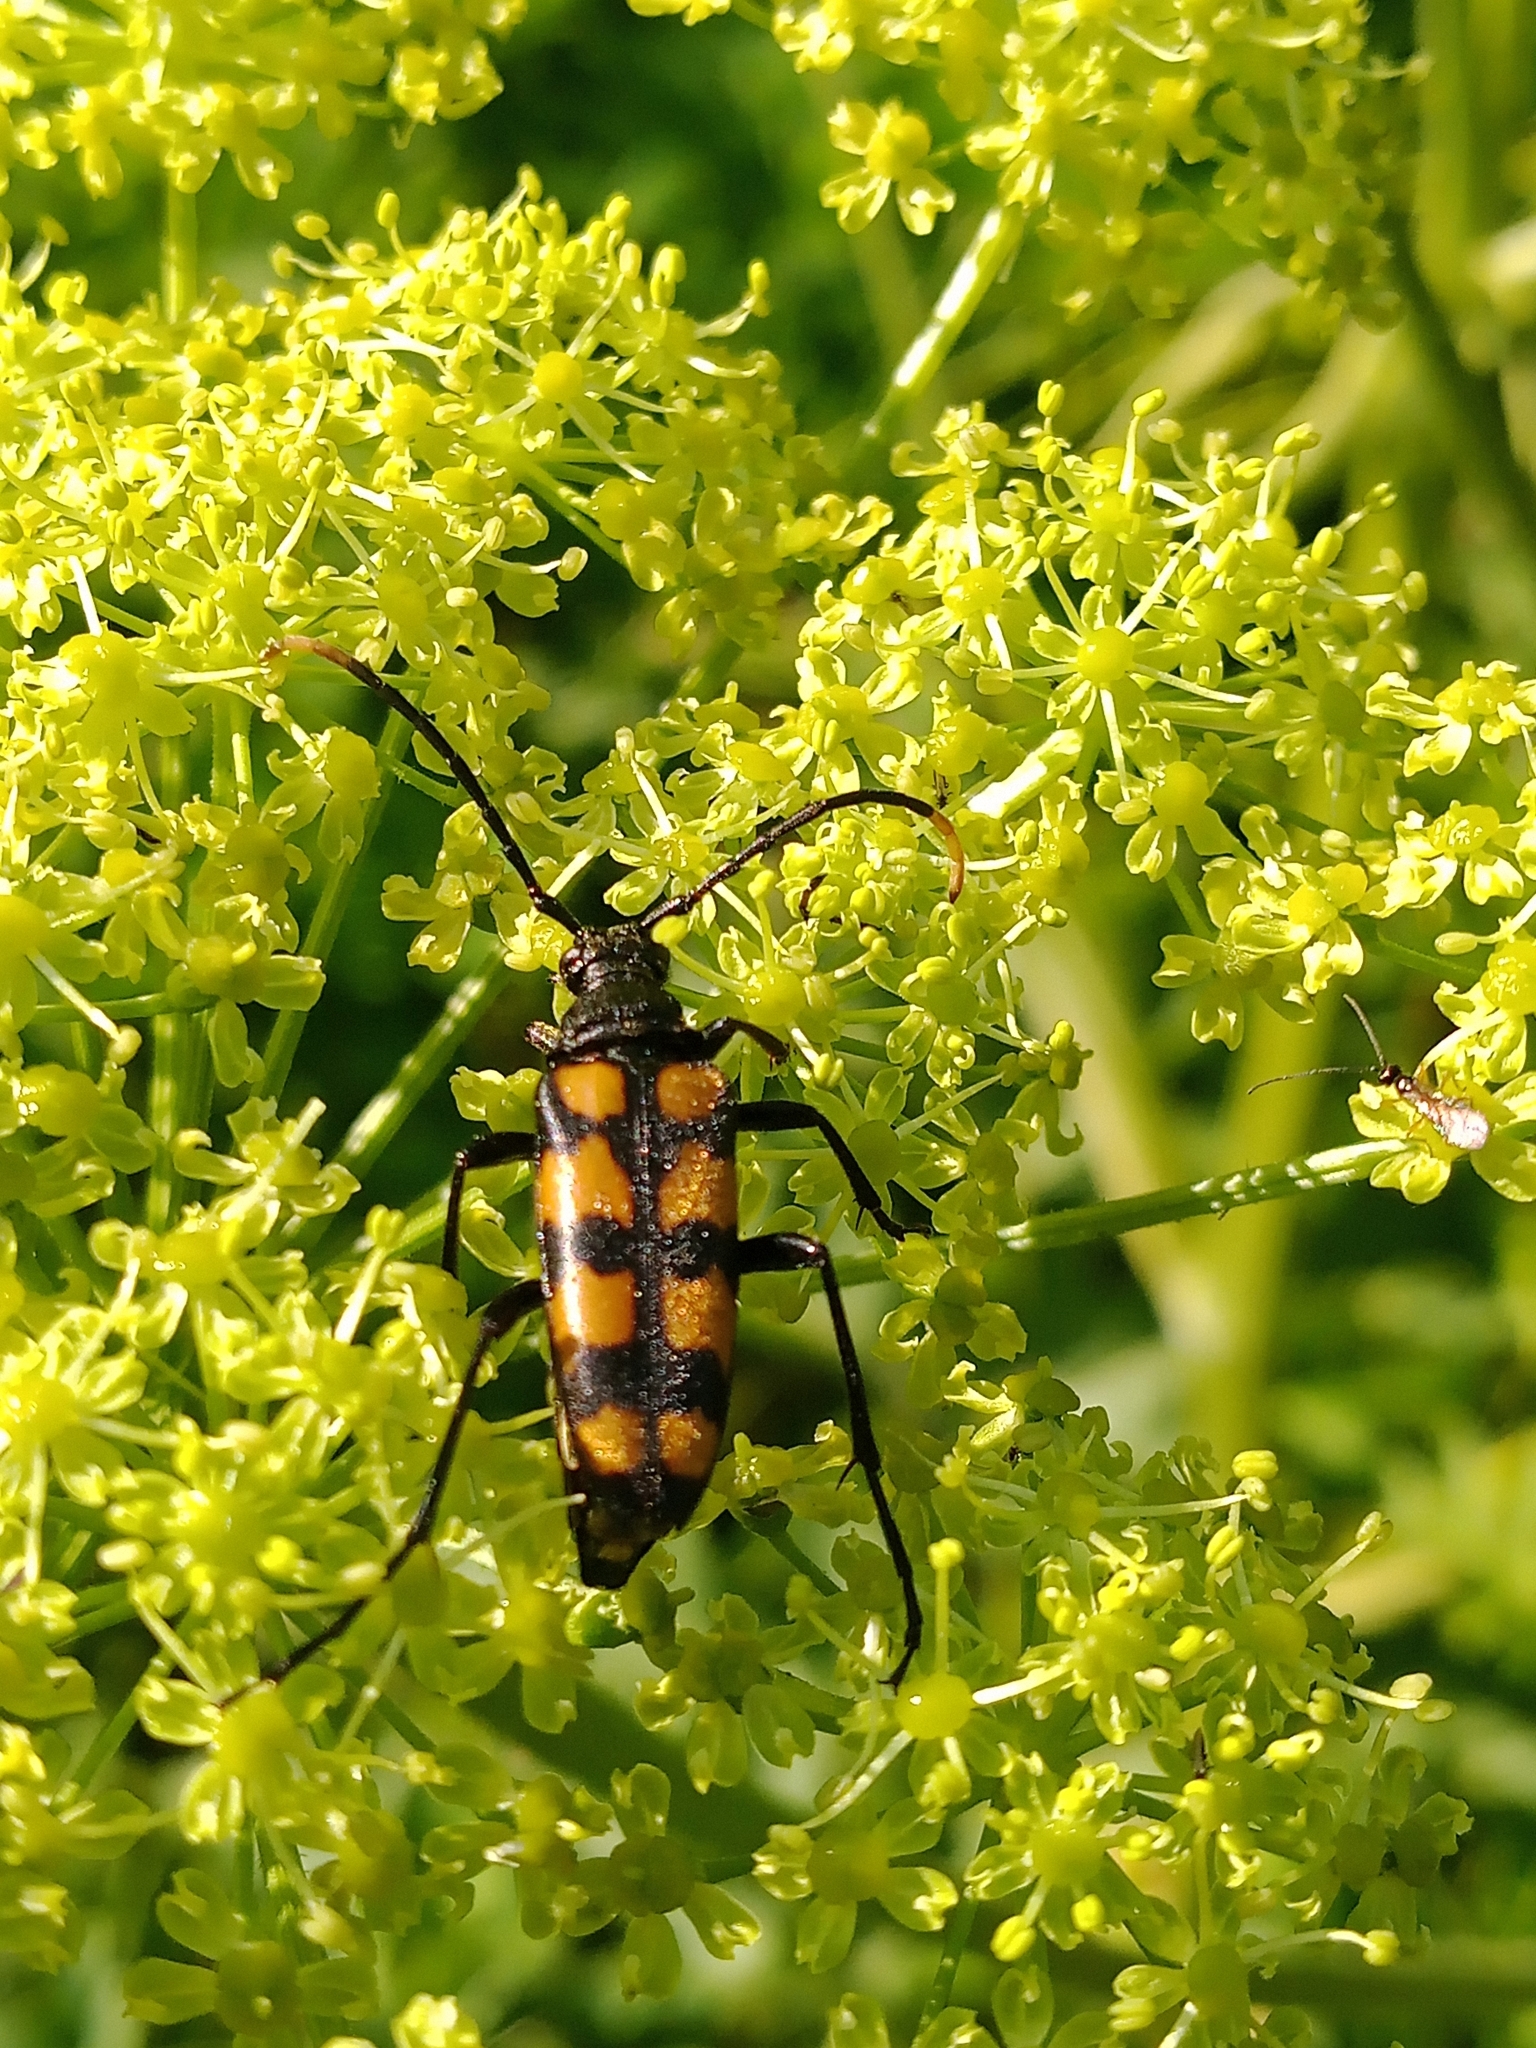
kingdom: Animalia
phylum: Arthropoda
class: Insecta
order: Coleoptera
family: Cerambycidae
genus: Leptura
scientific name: Leptura quadrifasciata
